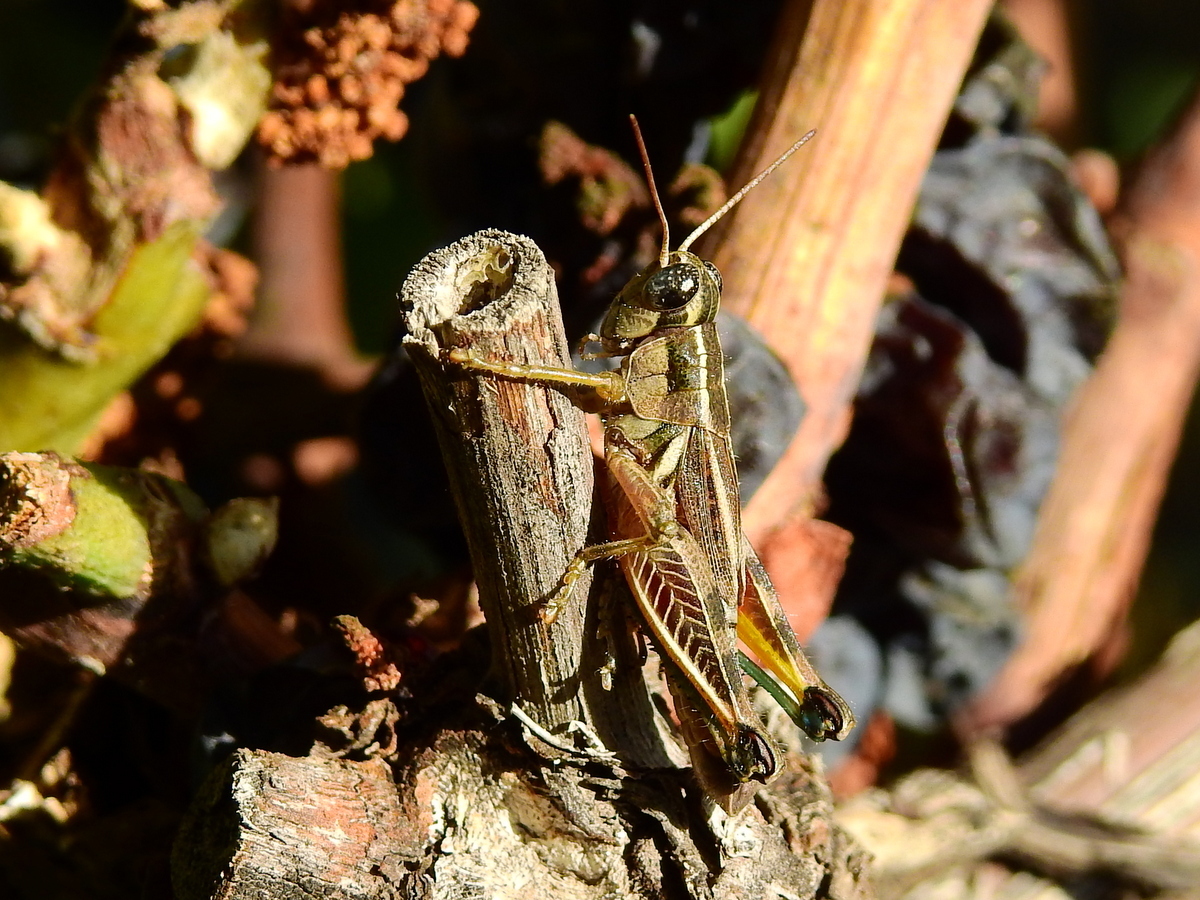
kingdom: Animalia
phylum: Arthropoda
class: Insecta
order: Orthoptera
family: Acrididae
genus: Dichroplus
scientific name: Dichroplus vittatus
